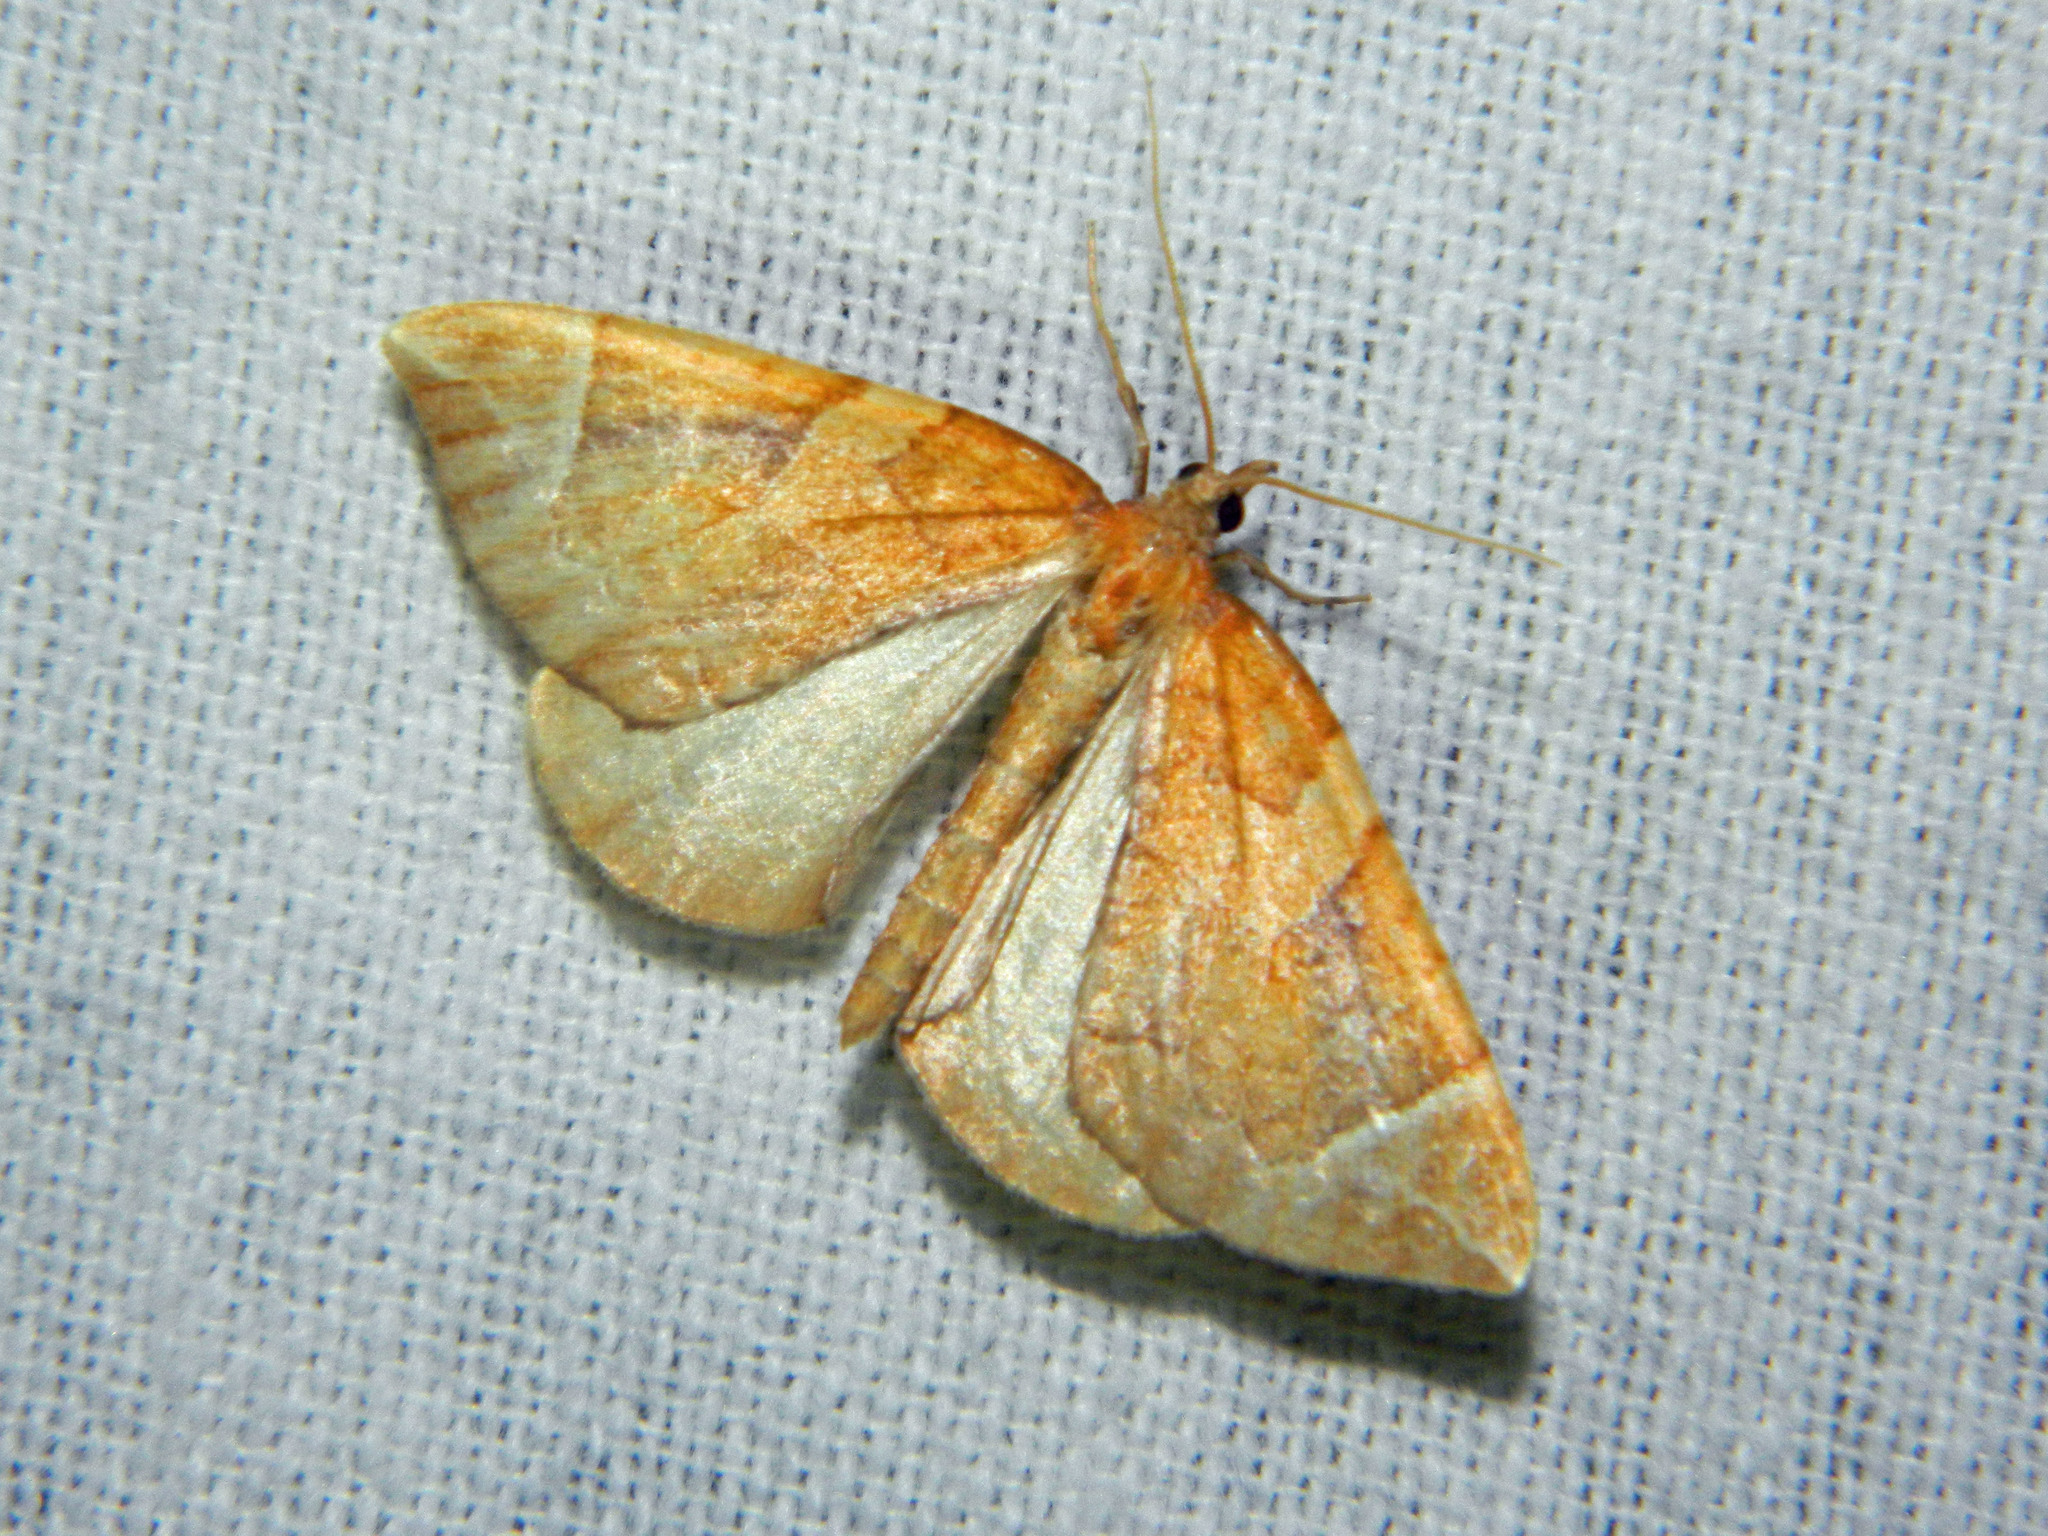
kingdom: Animalia
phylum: Arthropoda
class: Insecta
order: Lepidoptera
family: Geometridae
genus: Eulithis
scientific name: Eulithis testata
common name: Chevron
